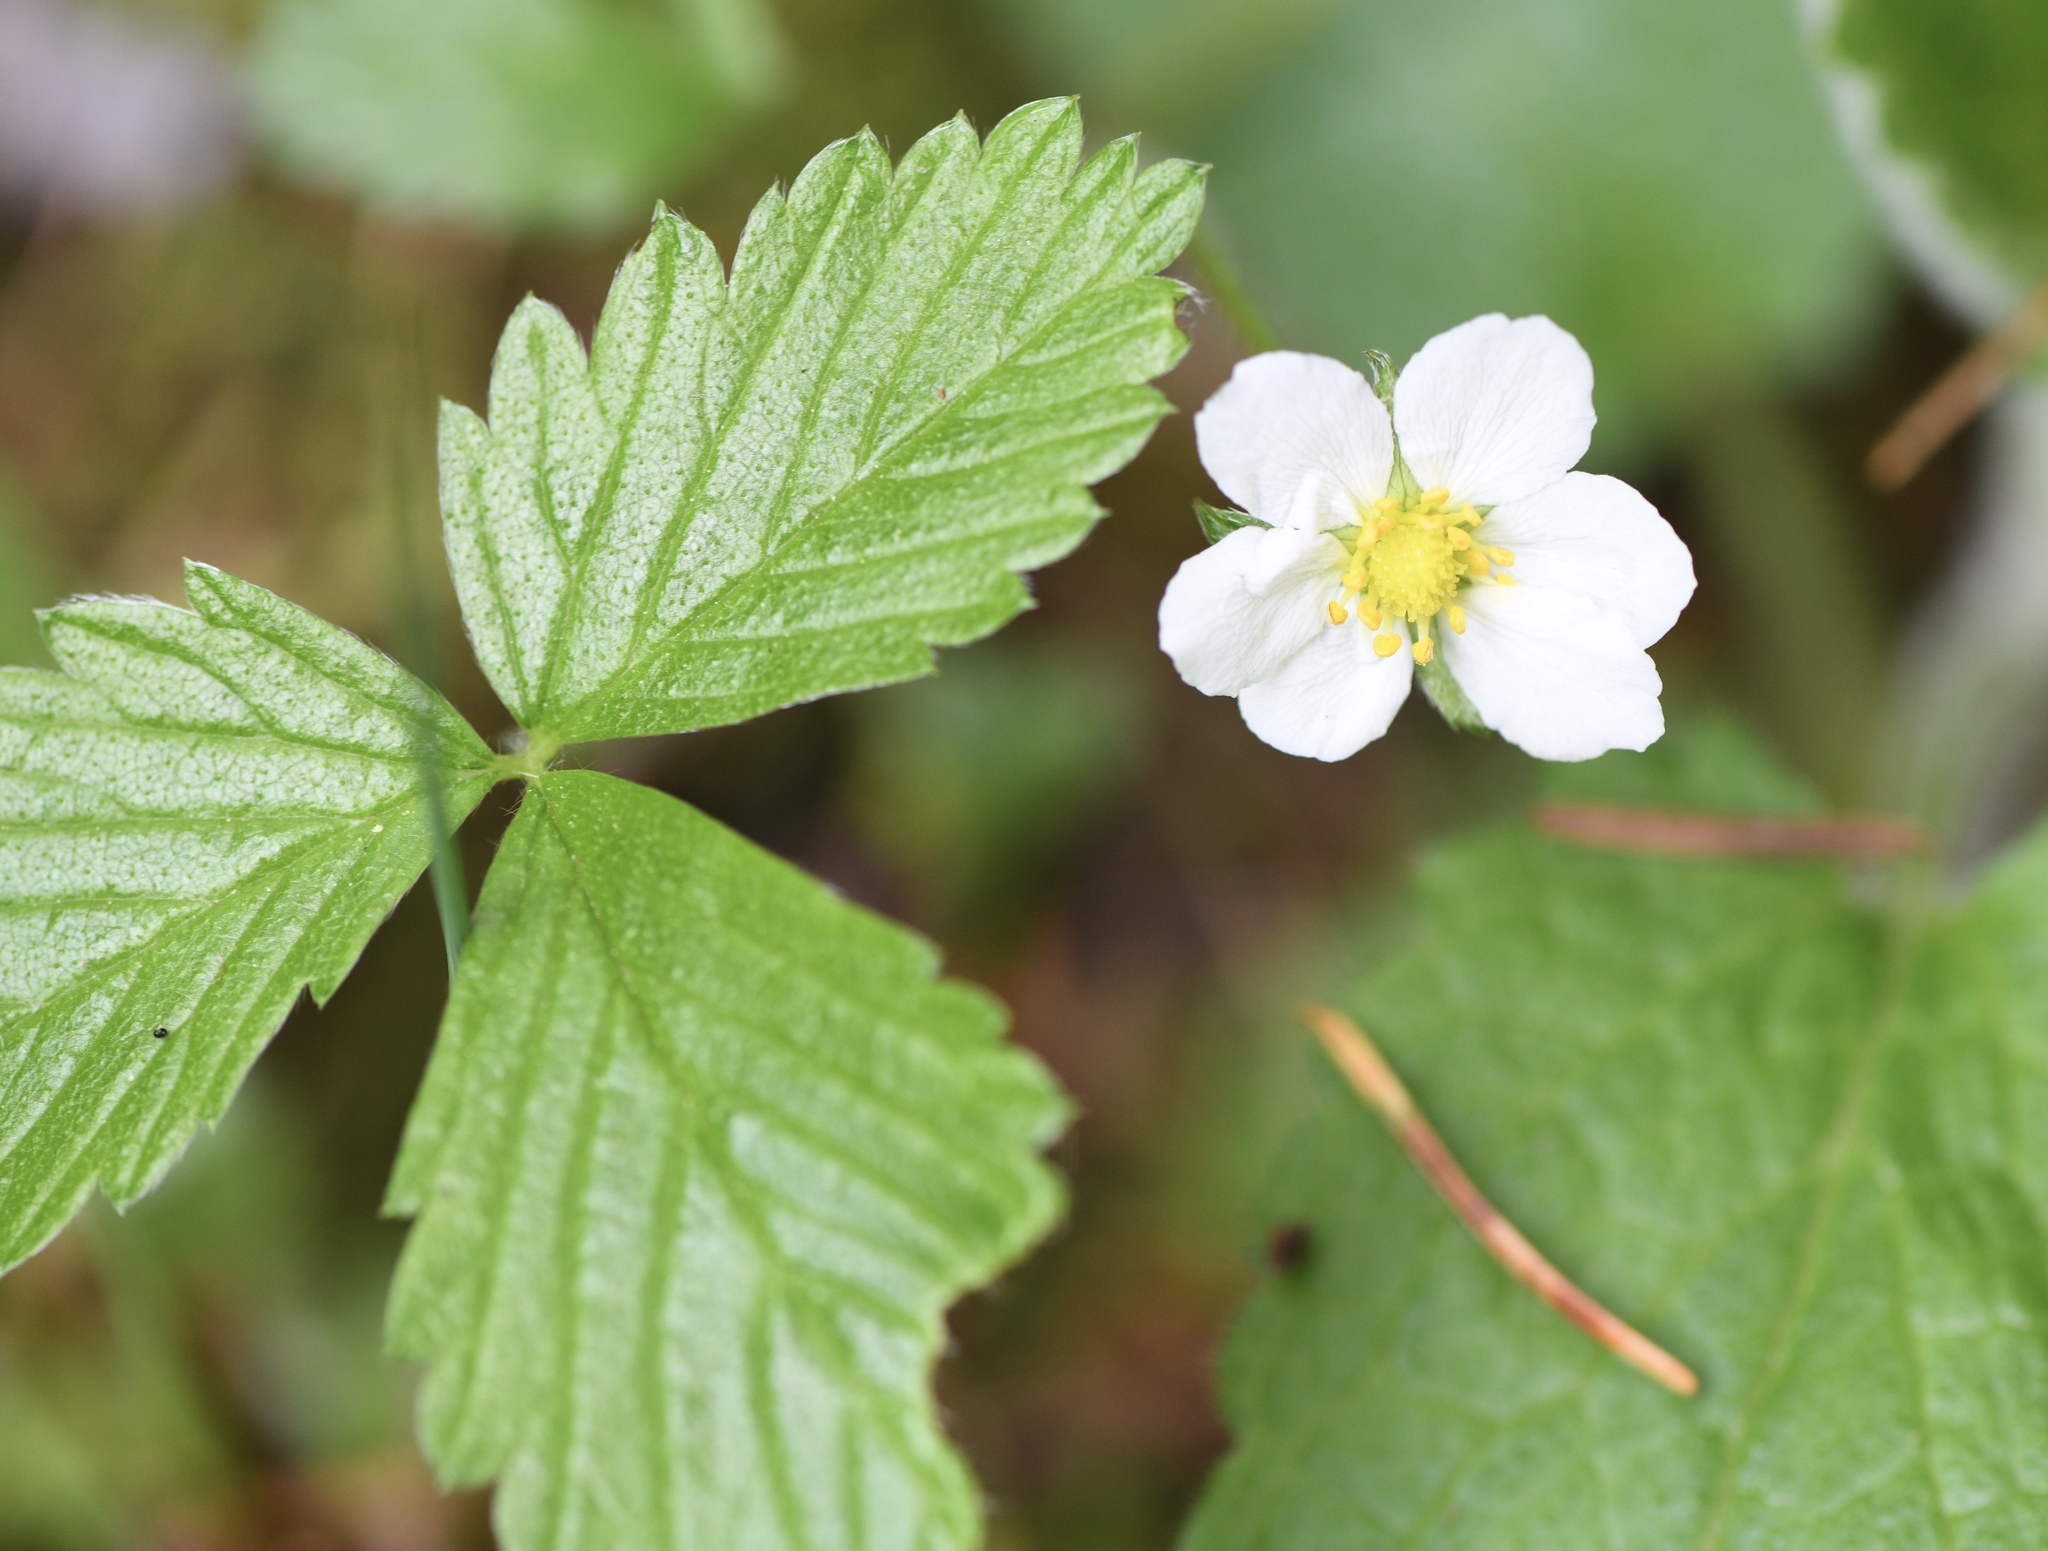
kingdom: Plantae
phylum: Tracheophyta
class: Magnoliopsida
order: Rosales
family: Rosaceae
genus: Fragaria
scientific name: Fragaria vesca
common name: Wild strawberry
